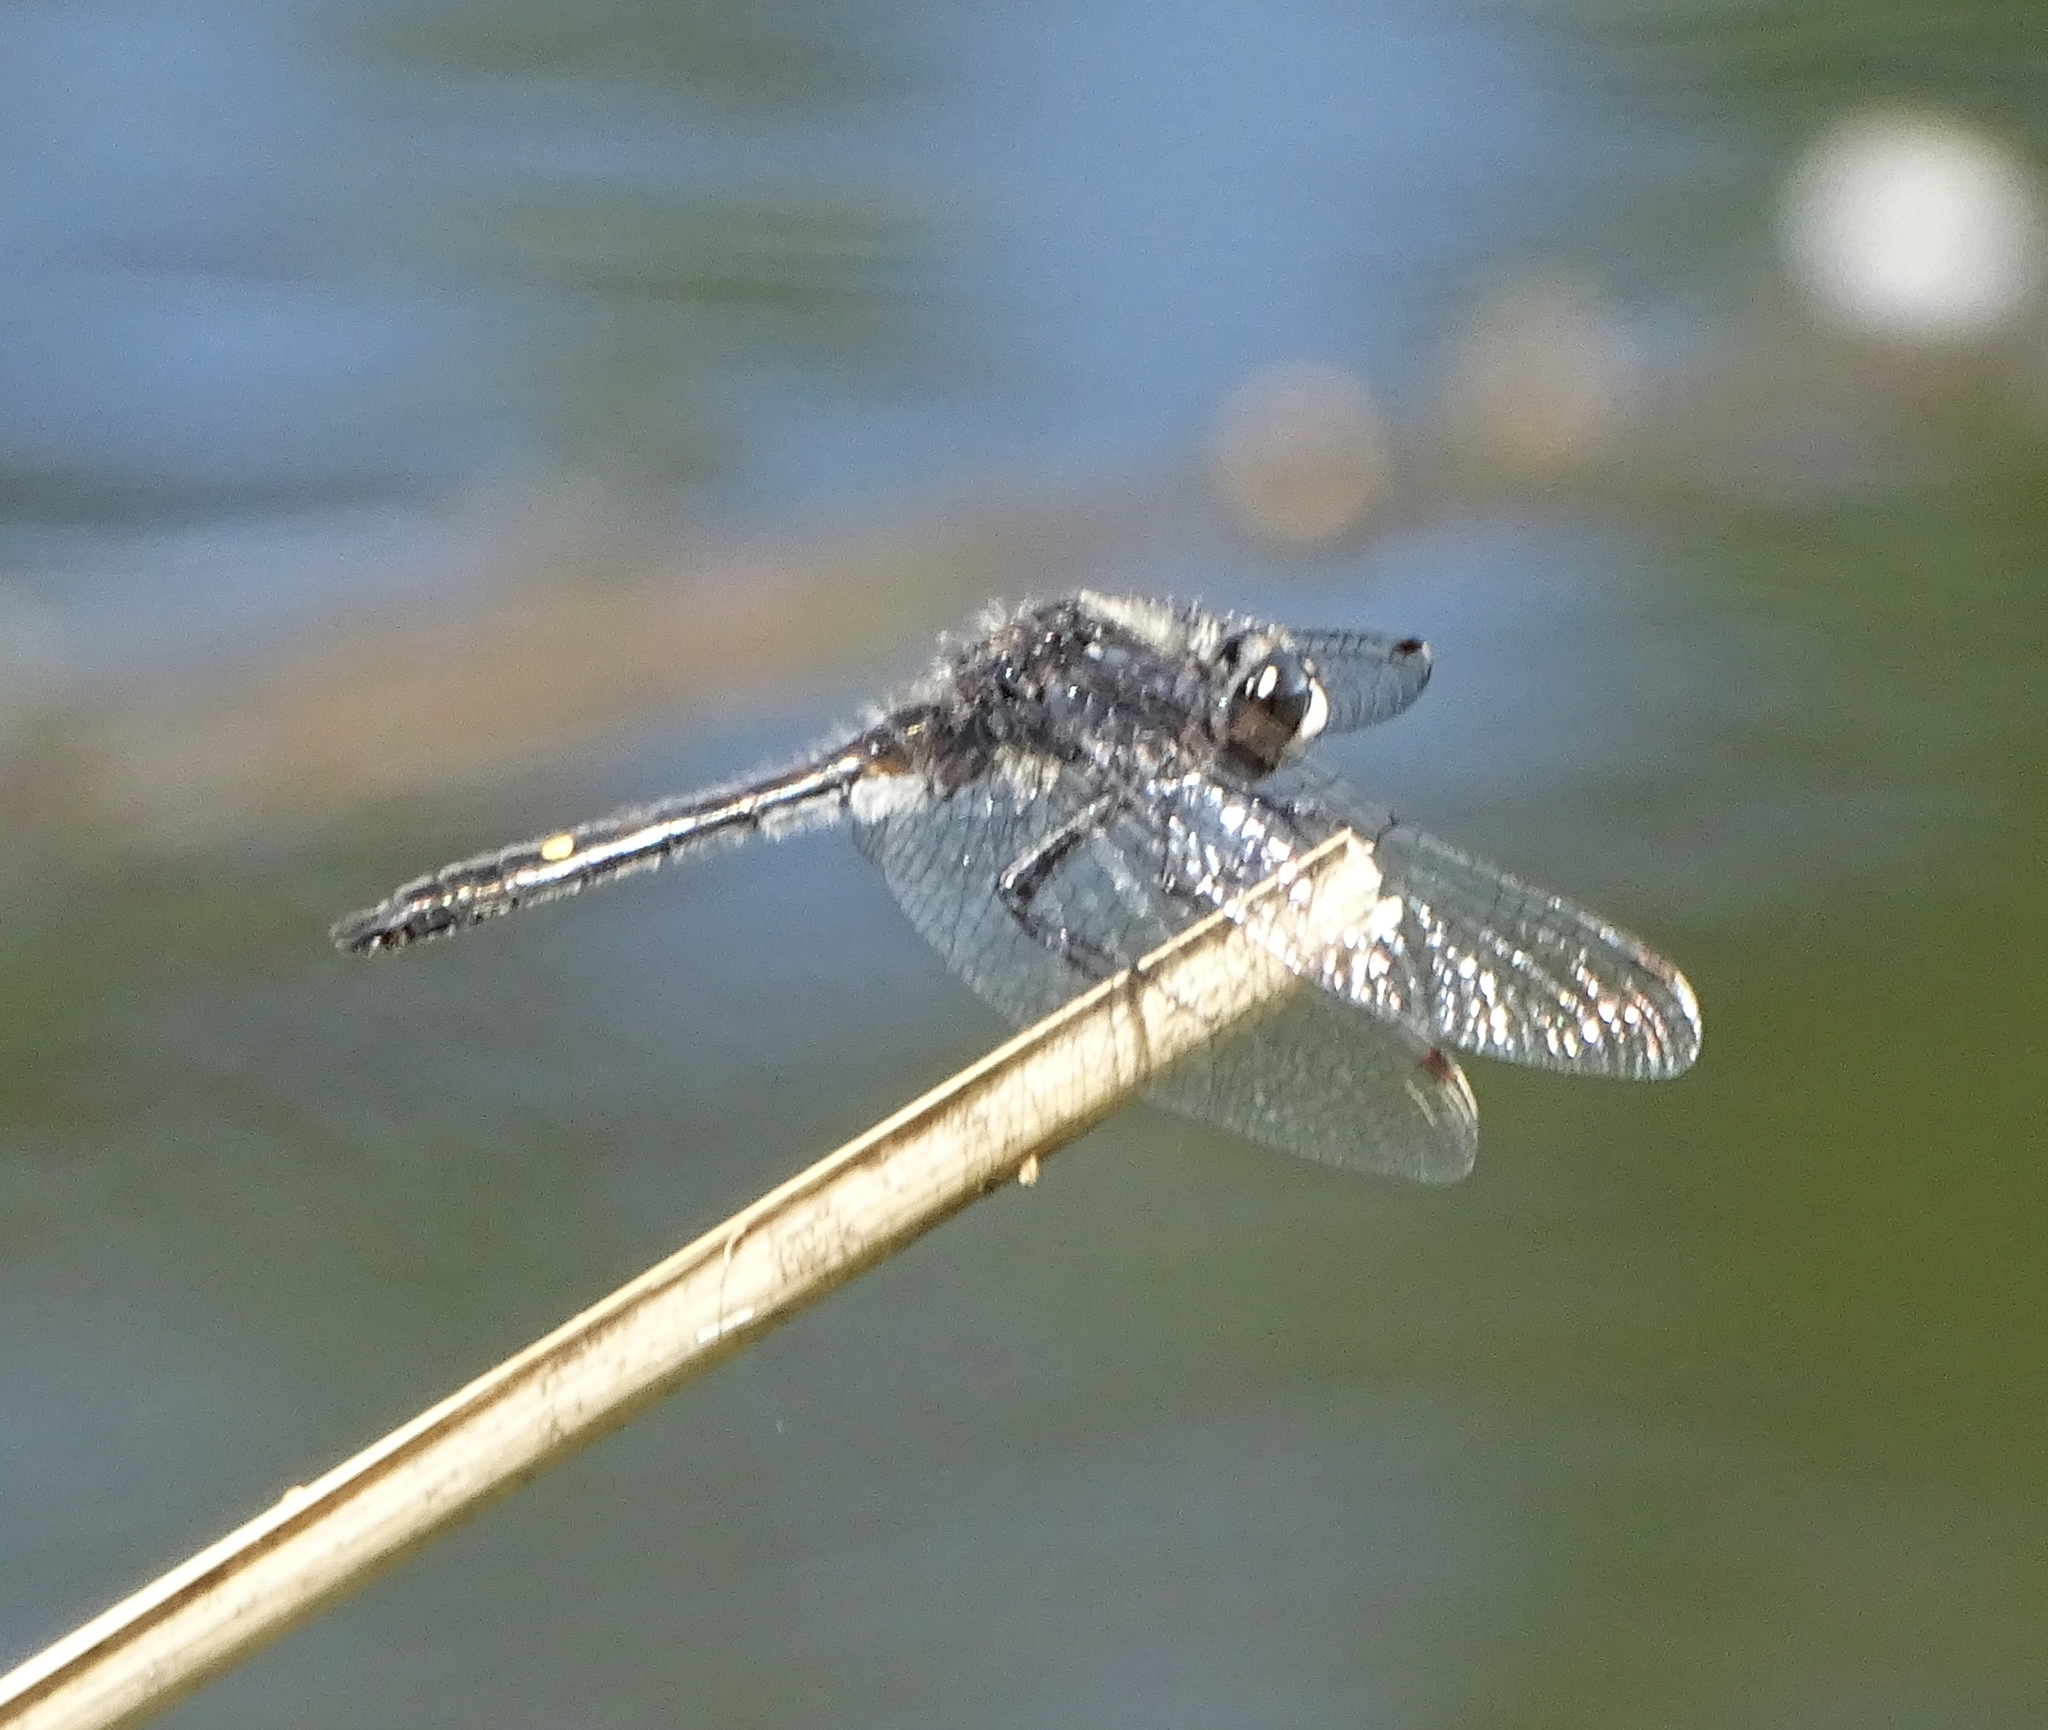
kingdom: Animalia
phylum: Arthropoda
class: Insecta
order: Odonata
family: Libellulidae
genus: Leucorrhinia
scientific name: Leucorrhinia intacta
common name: Dot-tailed whiteface
